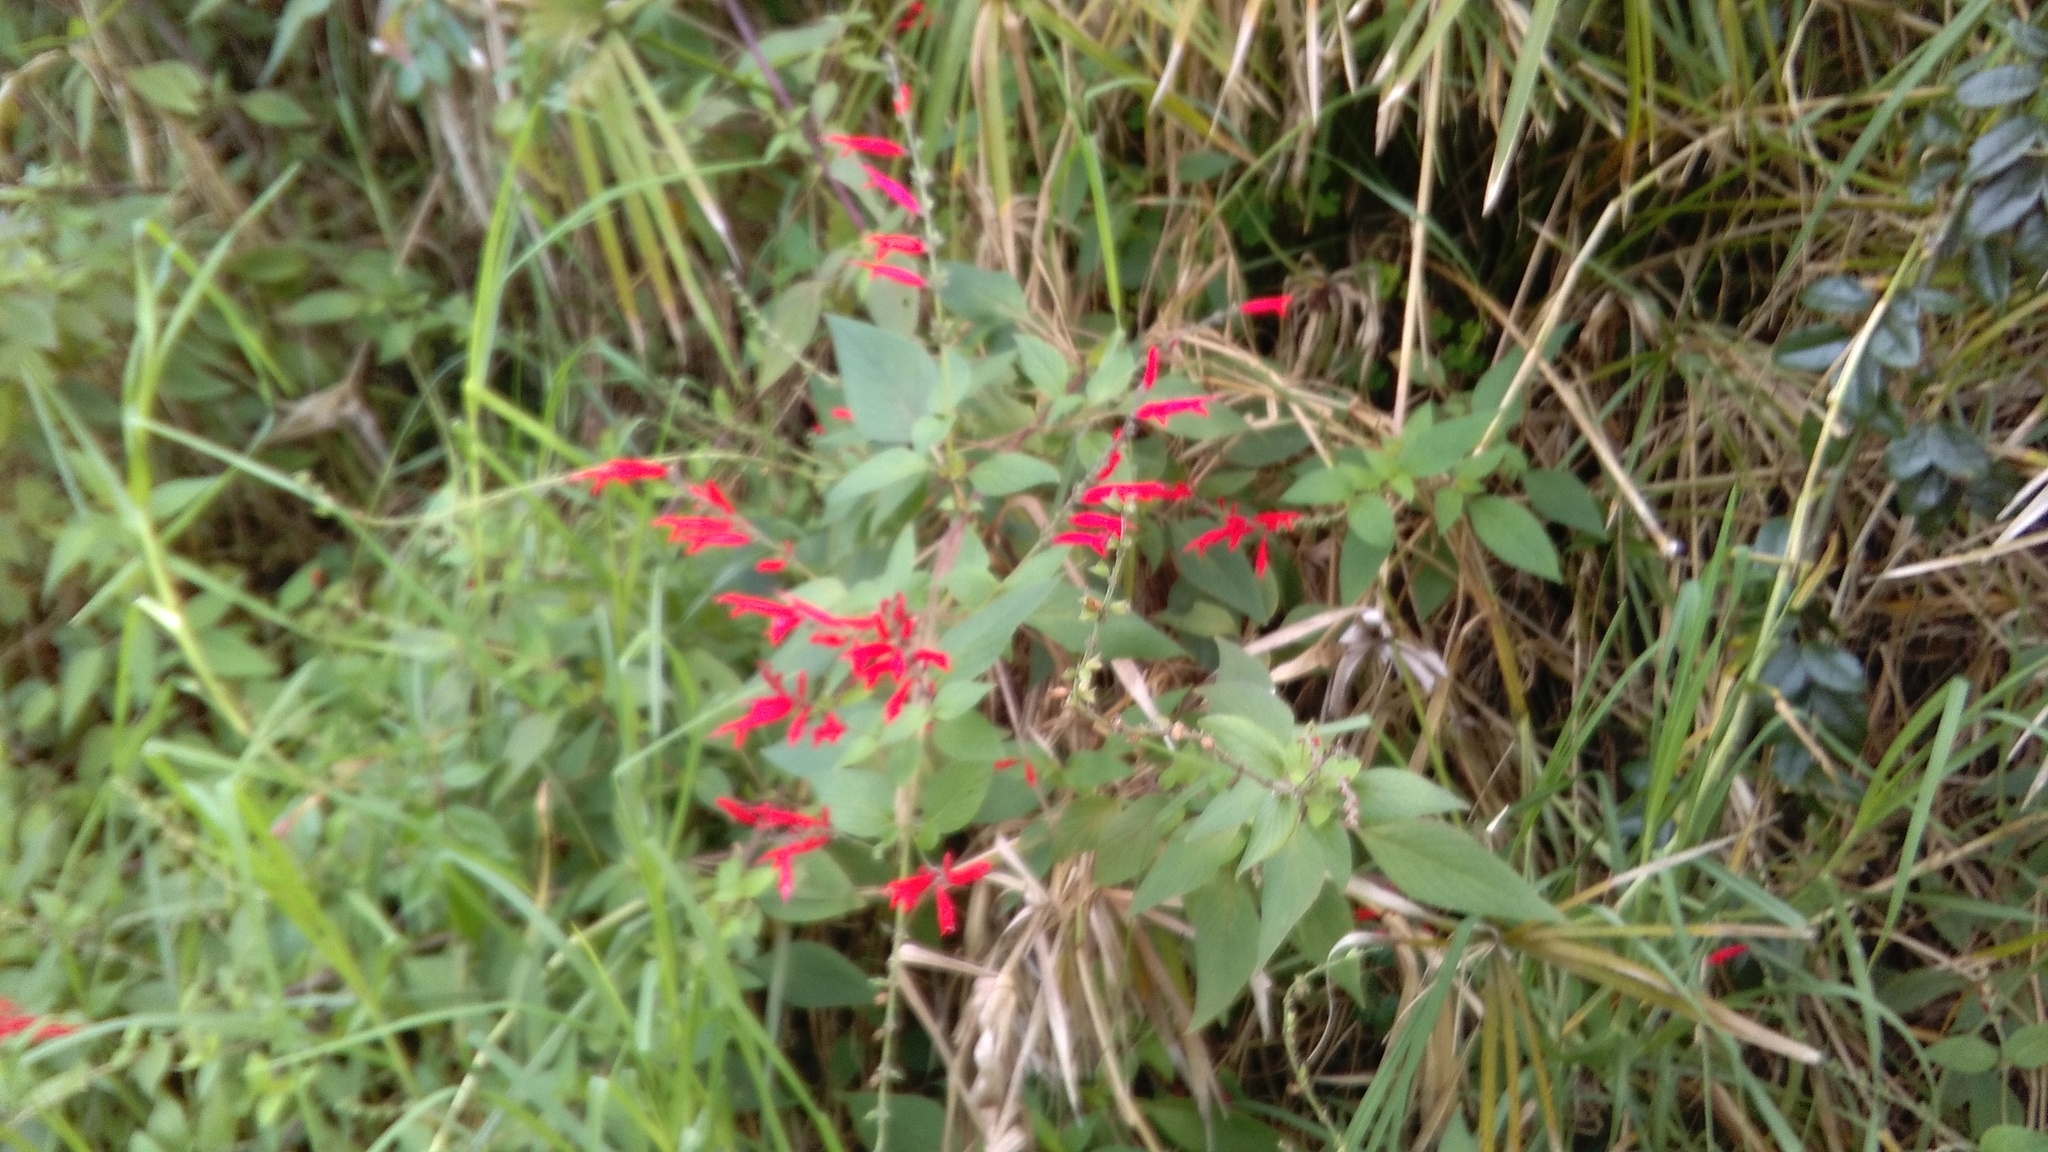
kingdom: Plantae
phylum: Tracheophyta
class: Magnoliopsida
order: Lamiales
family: Lamiaceae
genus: Salvia
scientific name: Salvia elegans
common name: Pineapple sage
